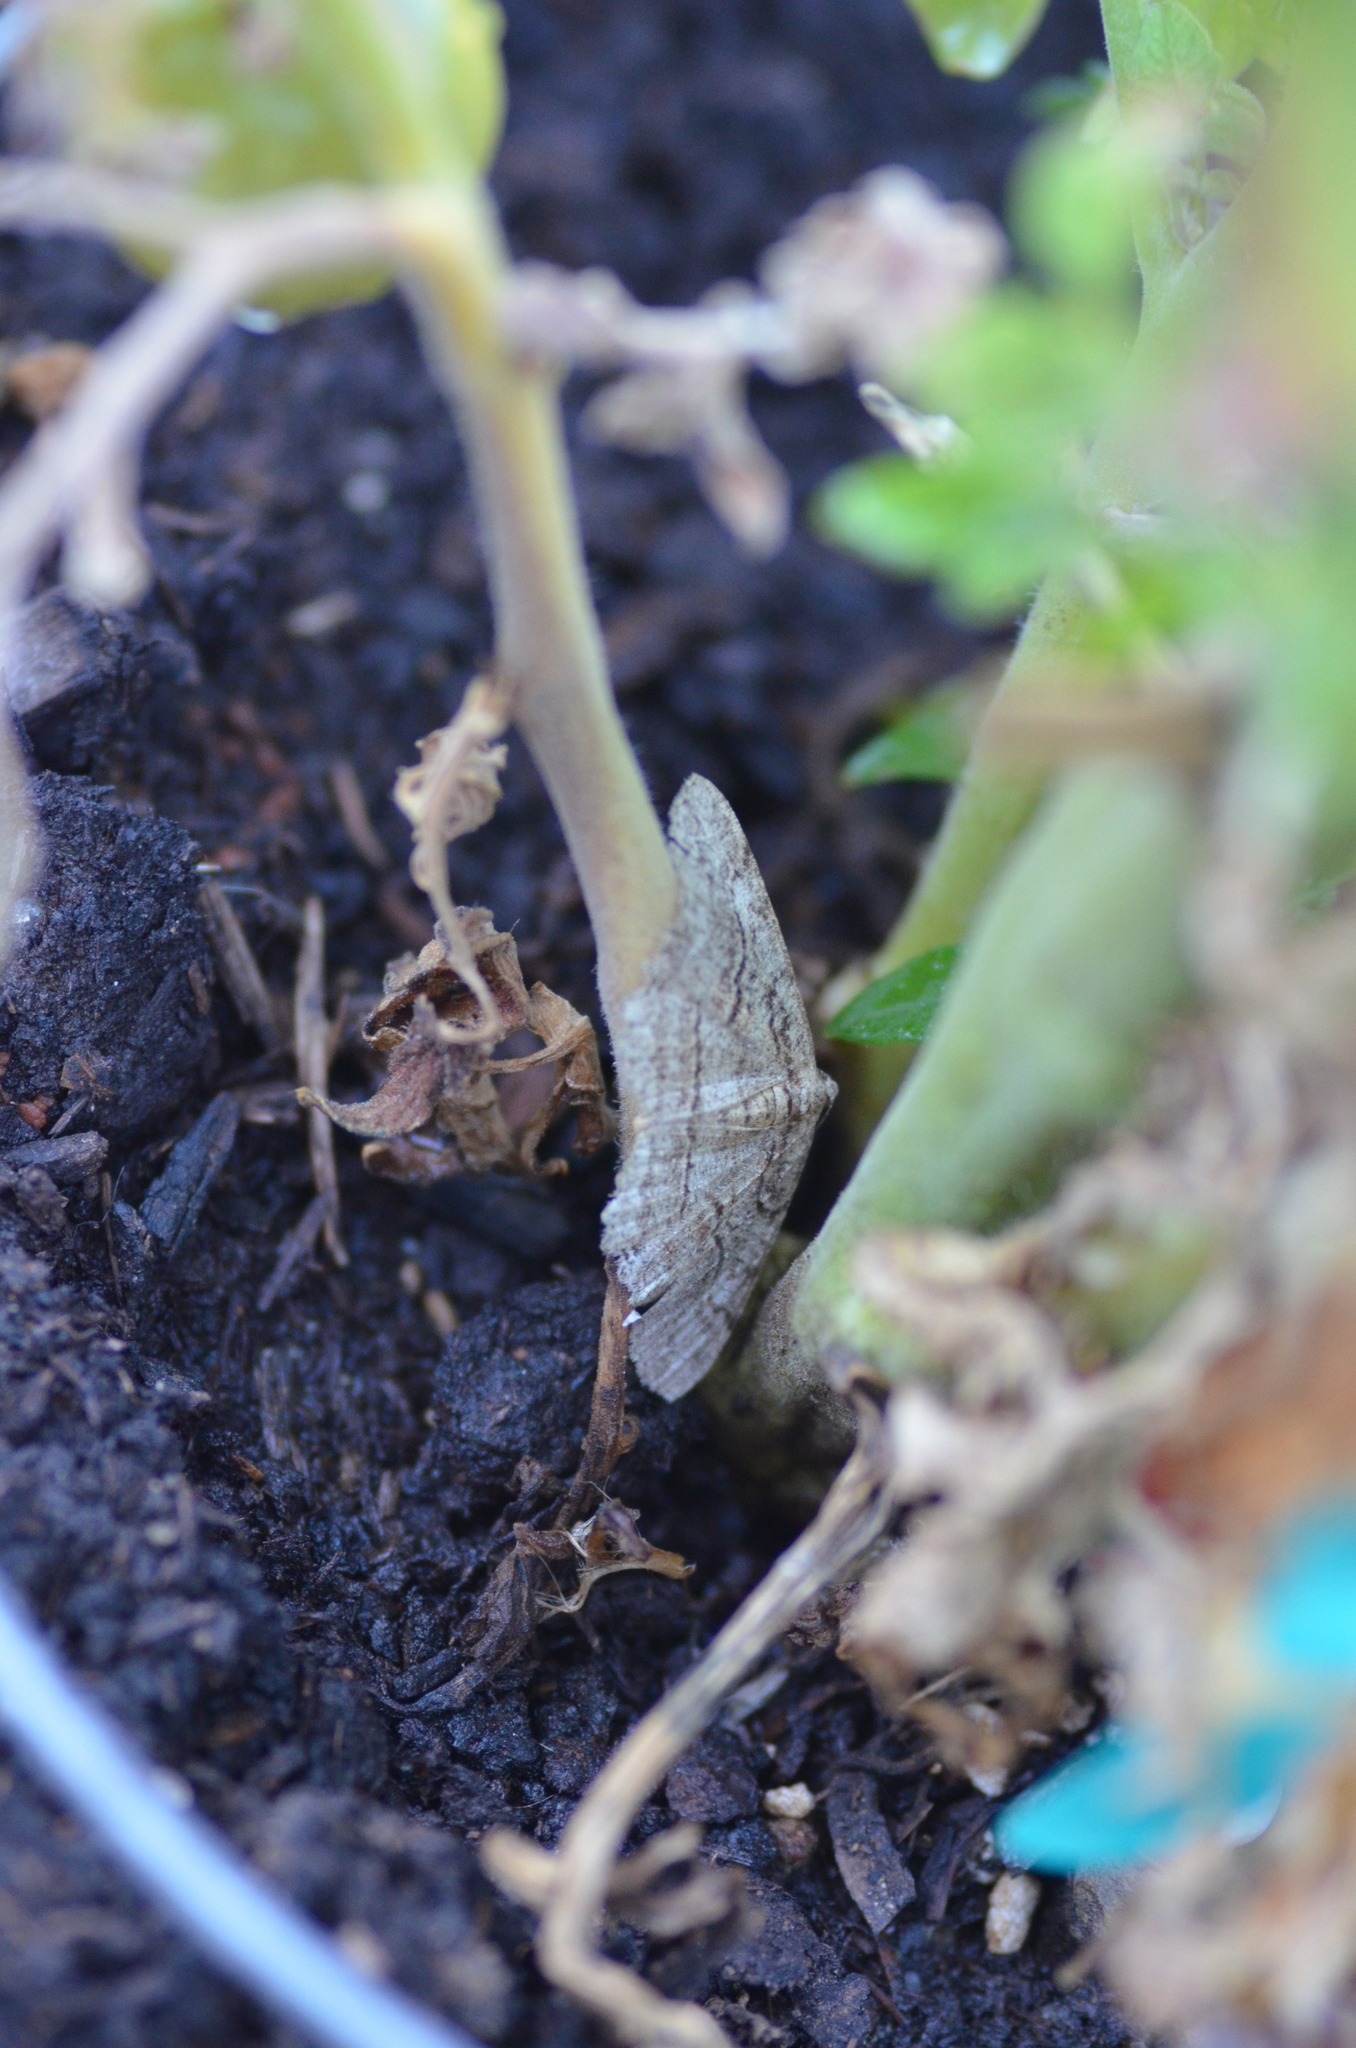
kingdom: Animalia
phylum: Arthropoda
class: Insecta
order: Lepidoptera
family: Geometridae
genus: Pterotaea
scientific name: Pterotaea lamiaria
